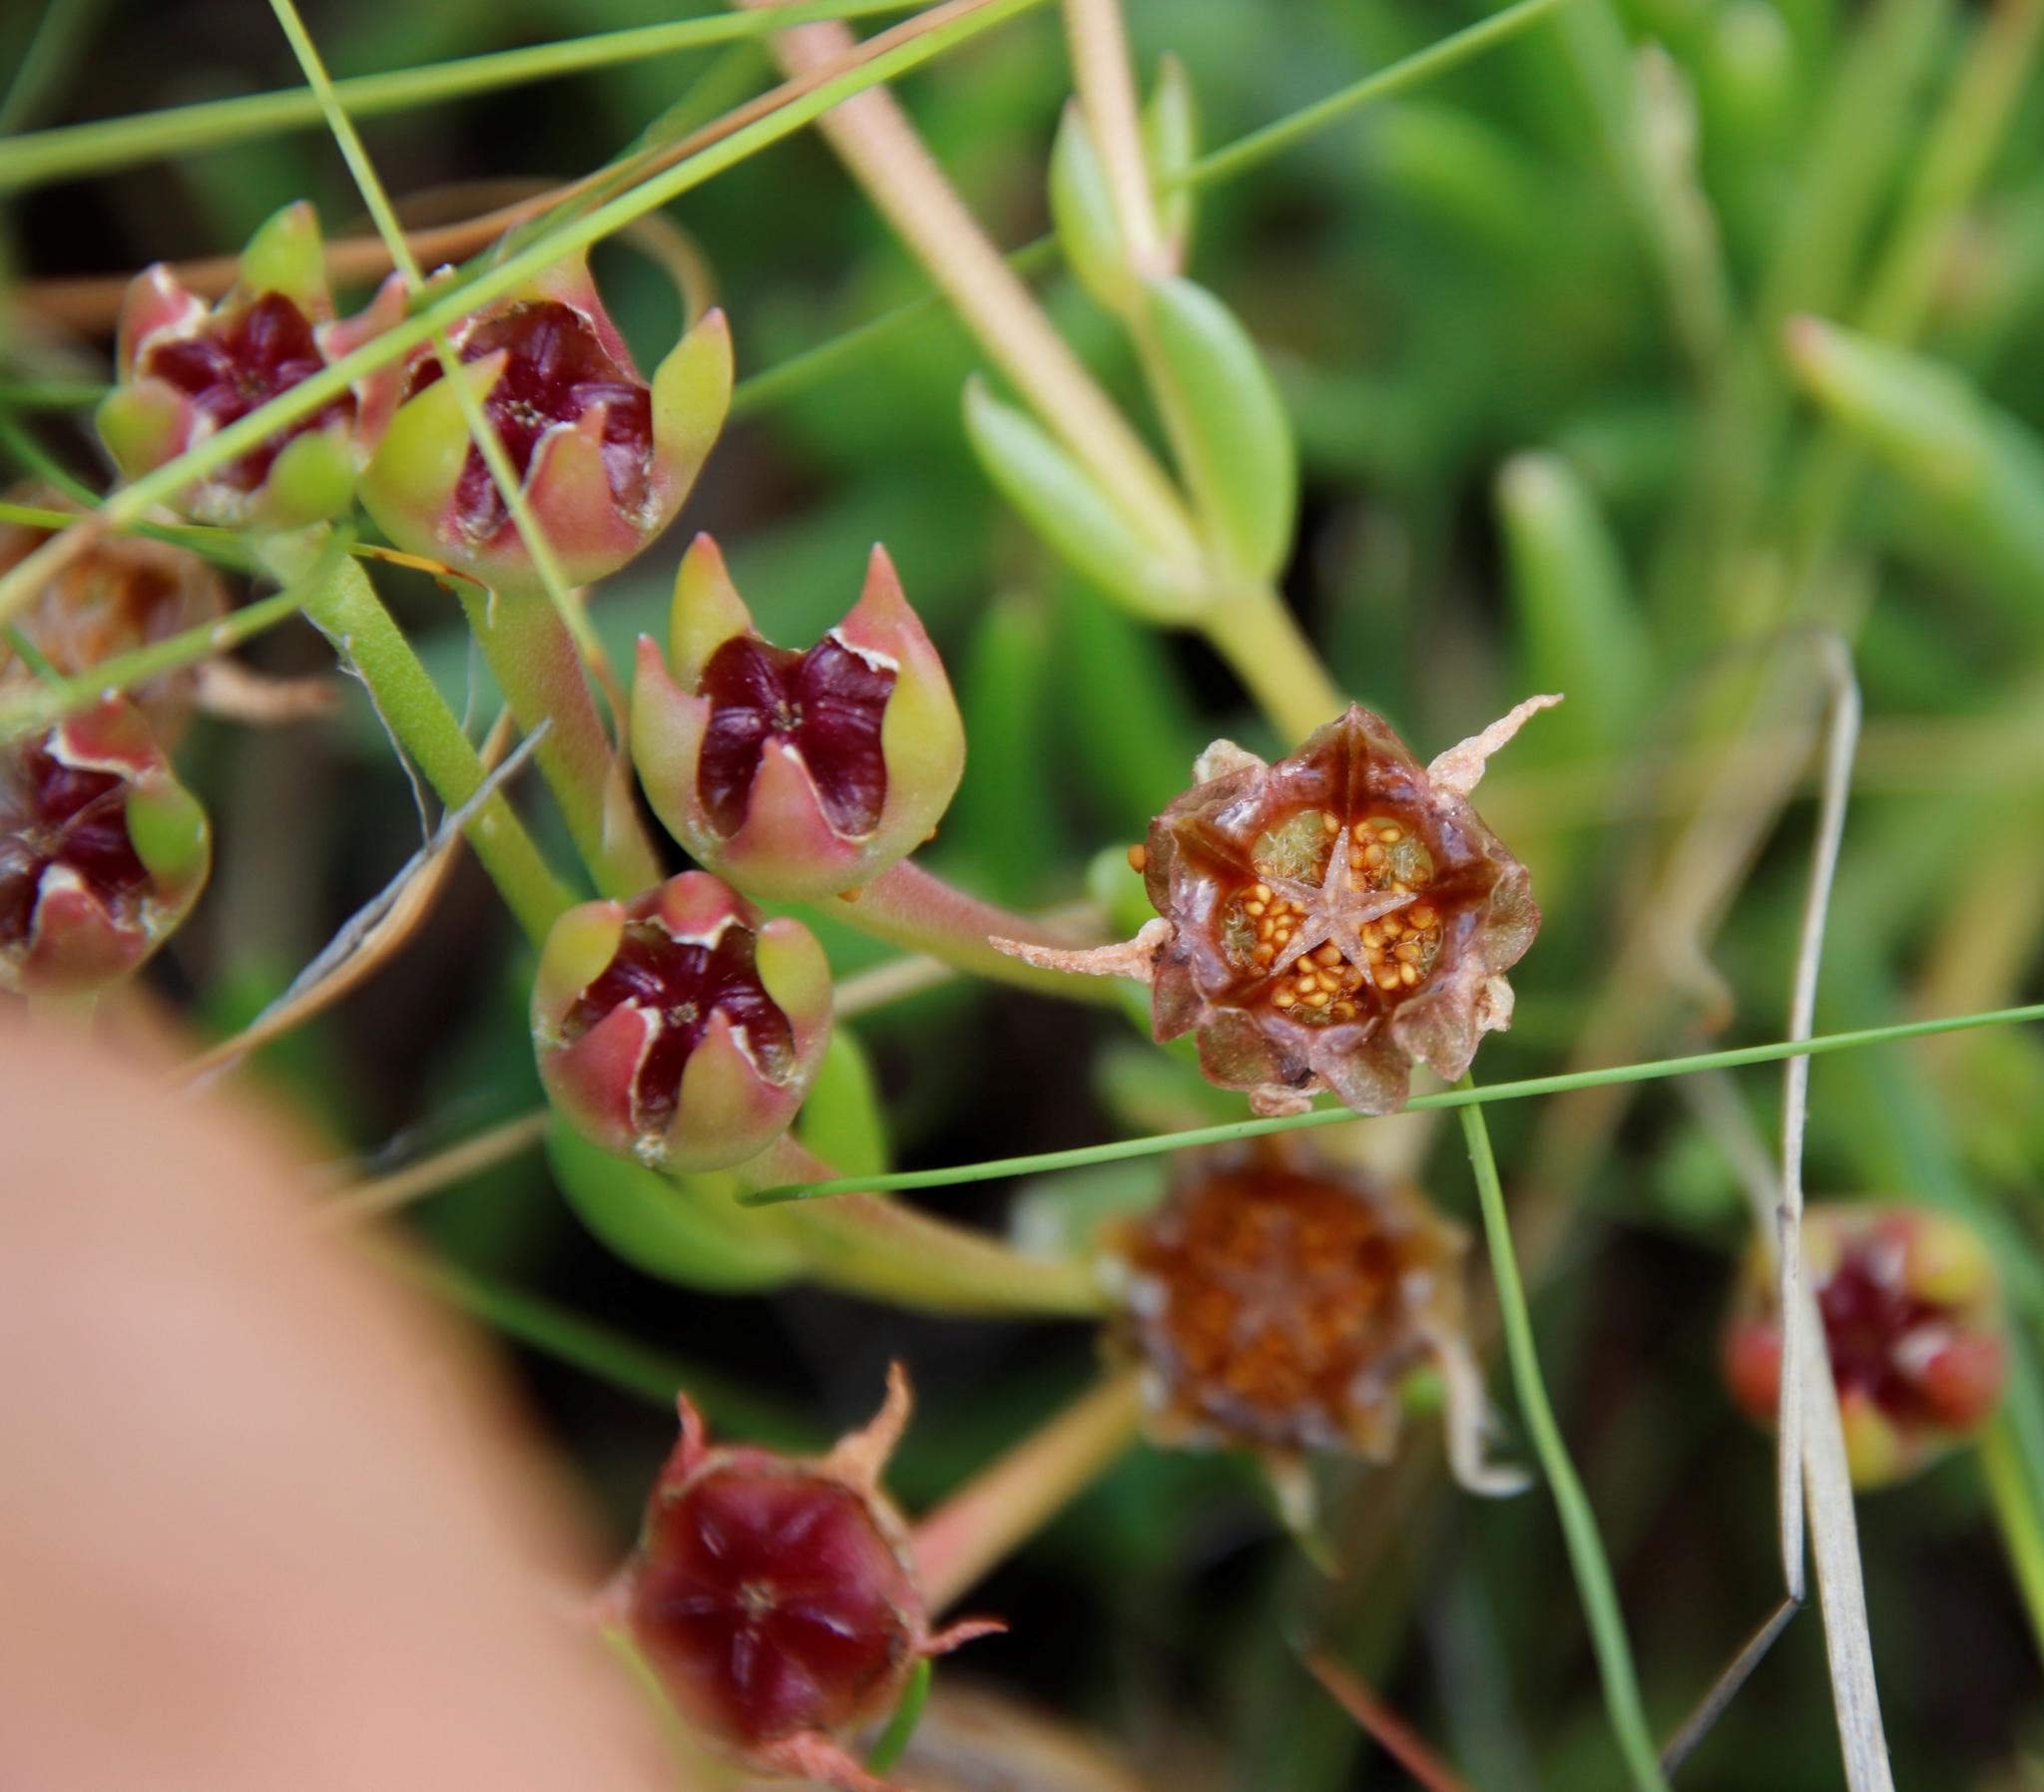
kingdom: Plantae
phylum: Tracheophyta
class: Magnoliopsida
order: Caryophyllales
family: Aizoaceae
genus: Delosperma
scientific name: Delosperma crassuloides
